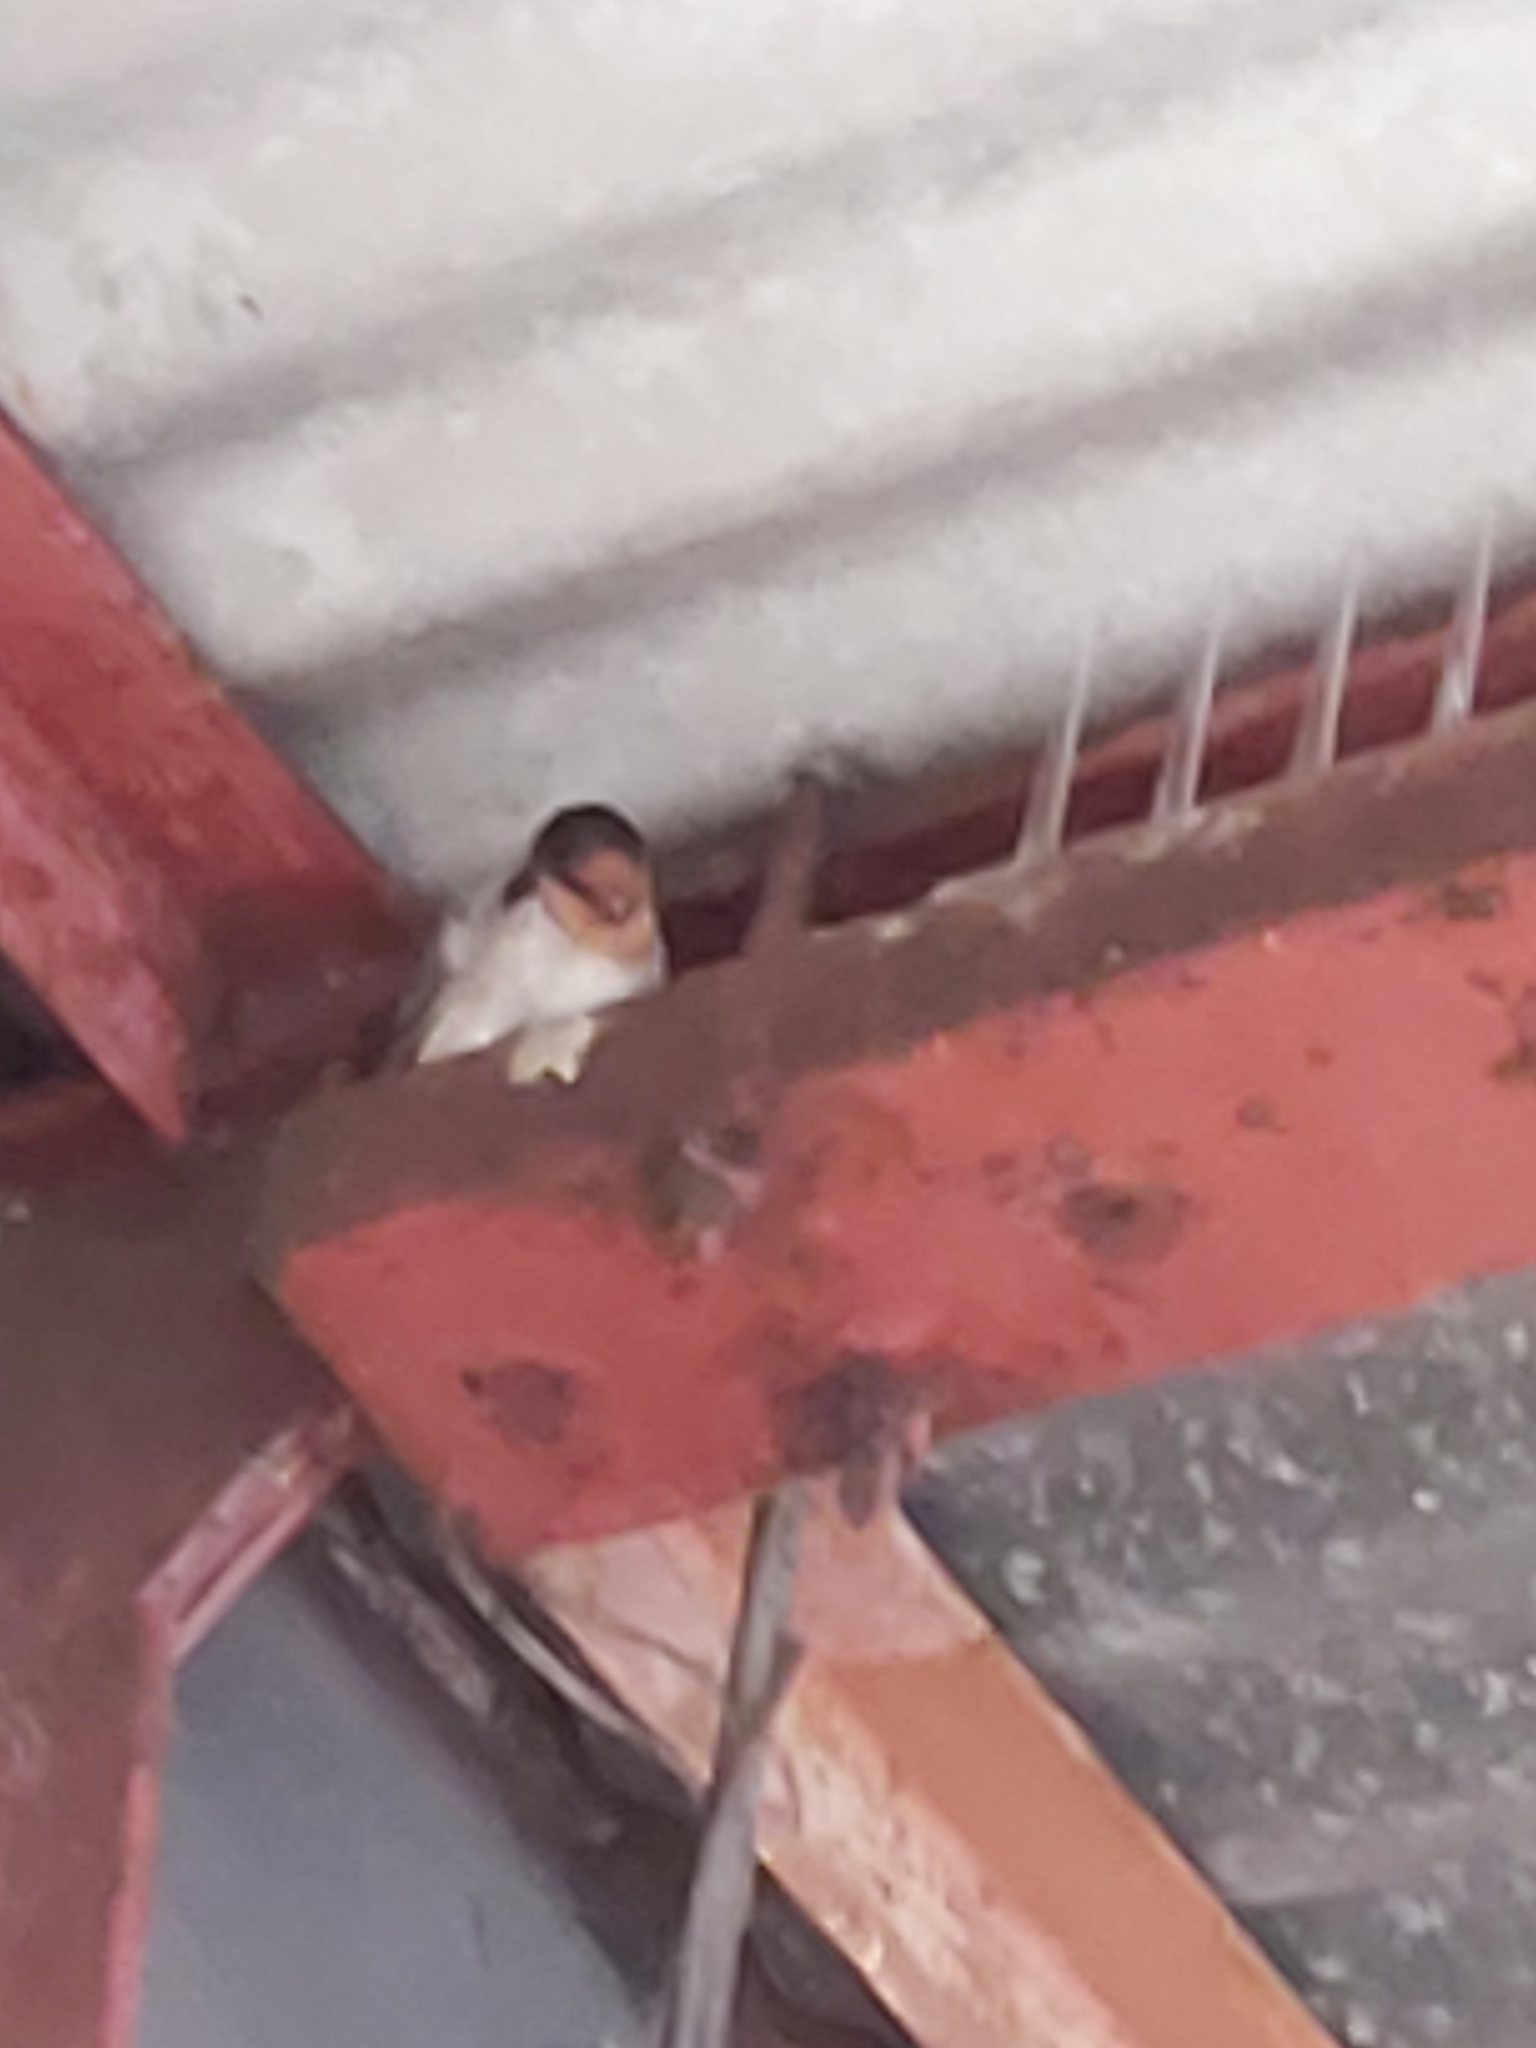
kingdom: Animalia
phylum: Chordata
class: Aves
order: Passeriformes
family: Hirundinidae
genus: Hirundo
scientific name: Hirundo neoxena
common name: Welcome swallow
